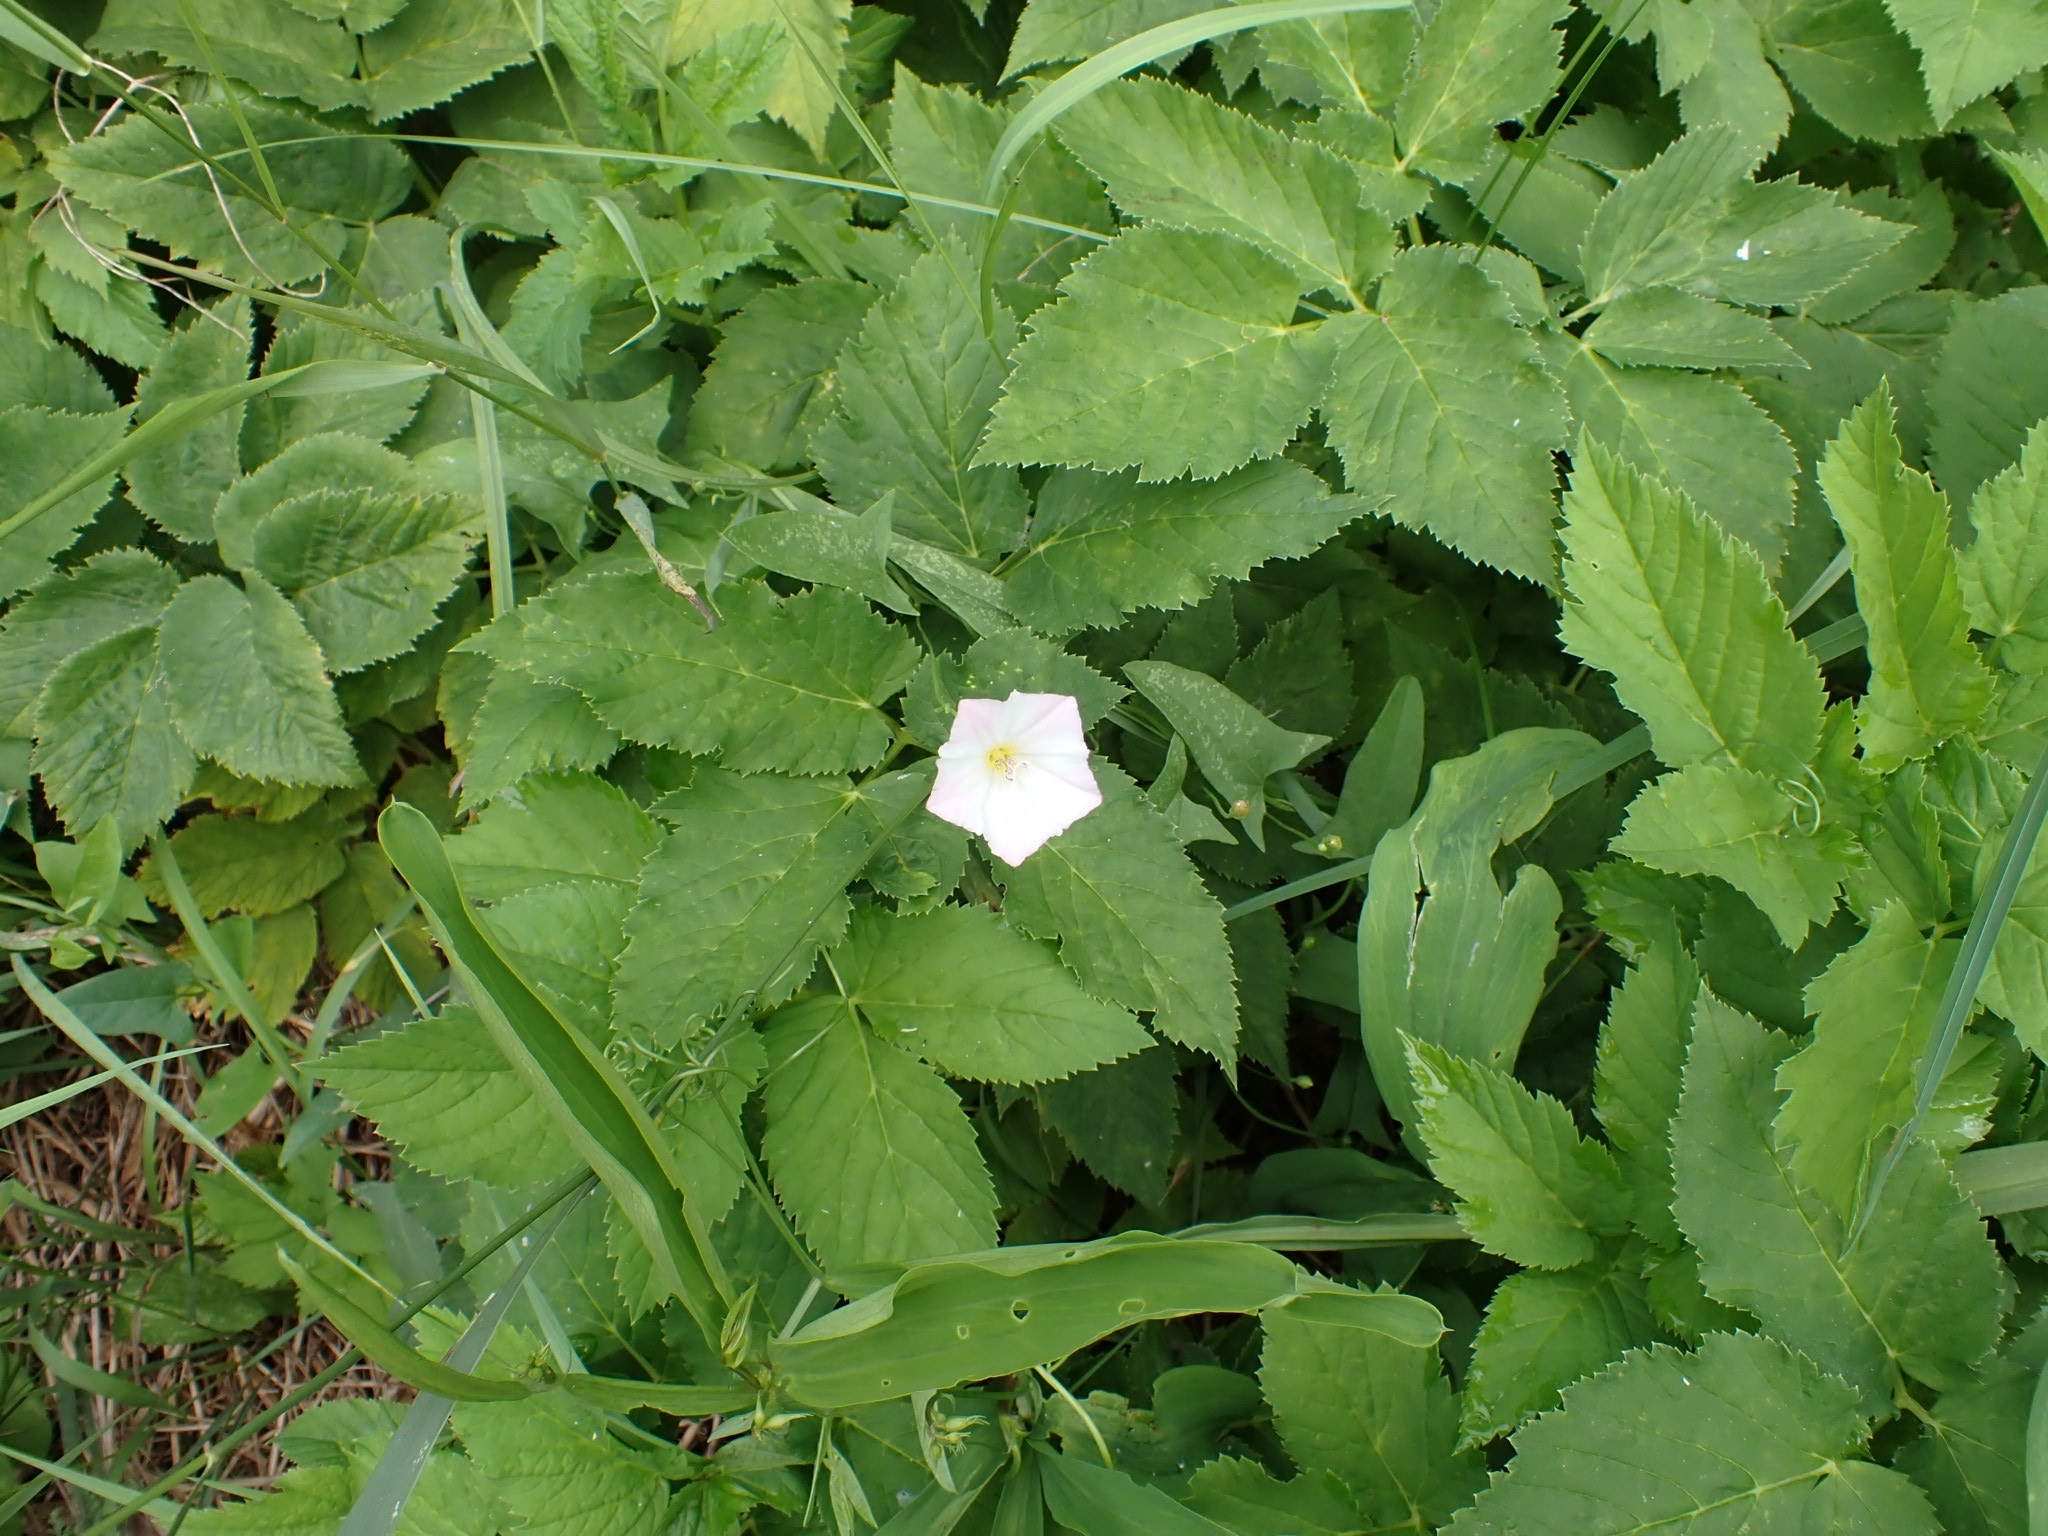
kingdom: Plantae
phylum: Tracheophyta
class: Magnoliopsida
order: Solanales
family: Convolvulaceae
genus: Convolvulus
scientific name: Convolvulus arvensis
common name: Field bindweed
